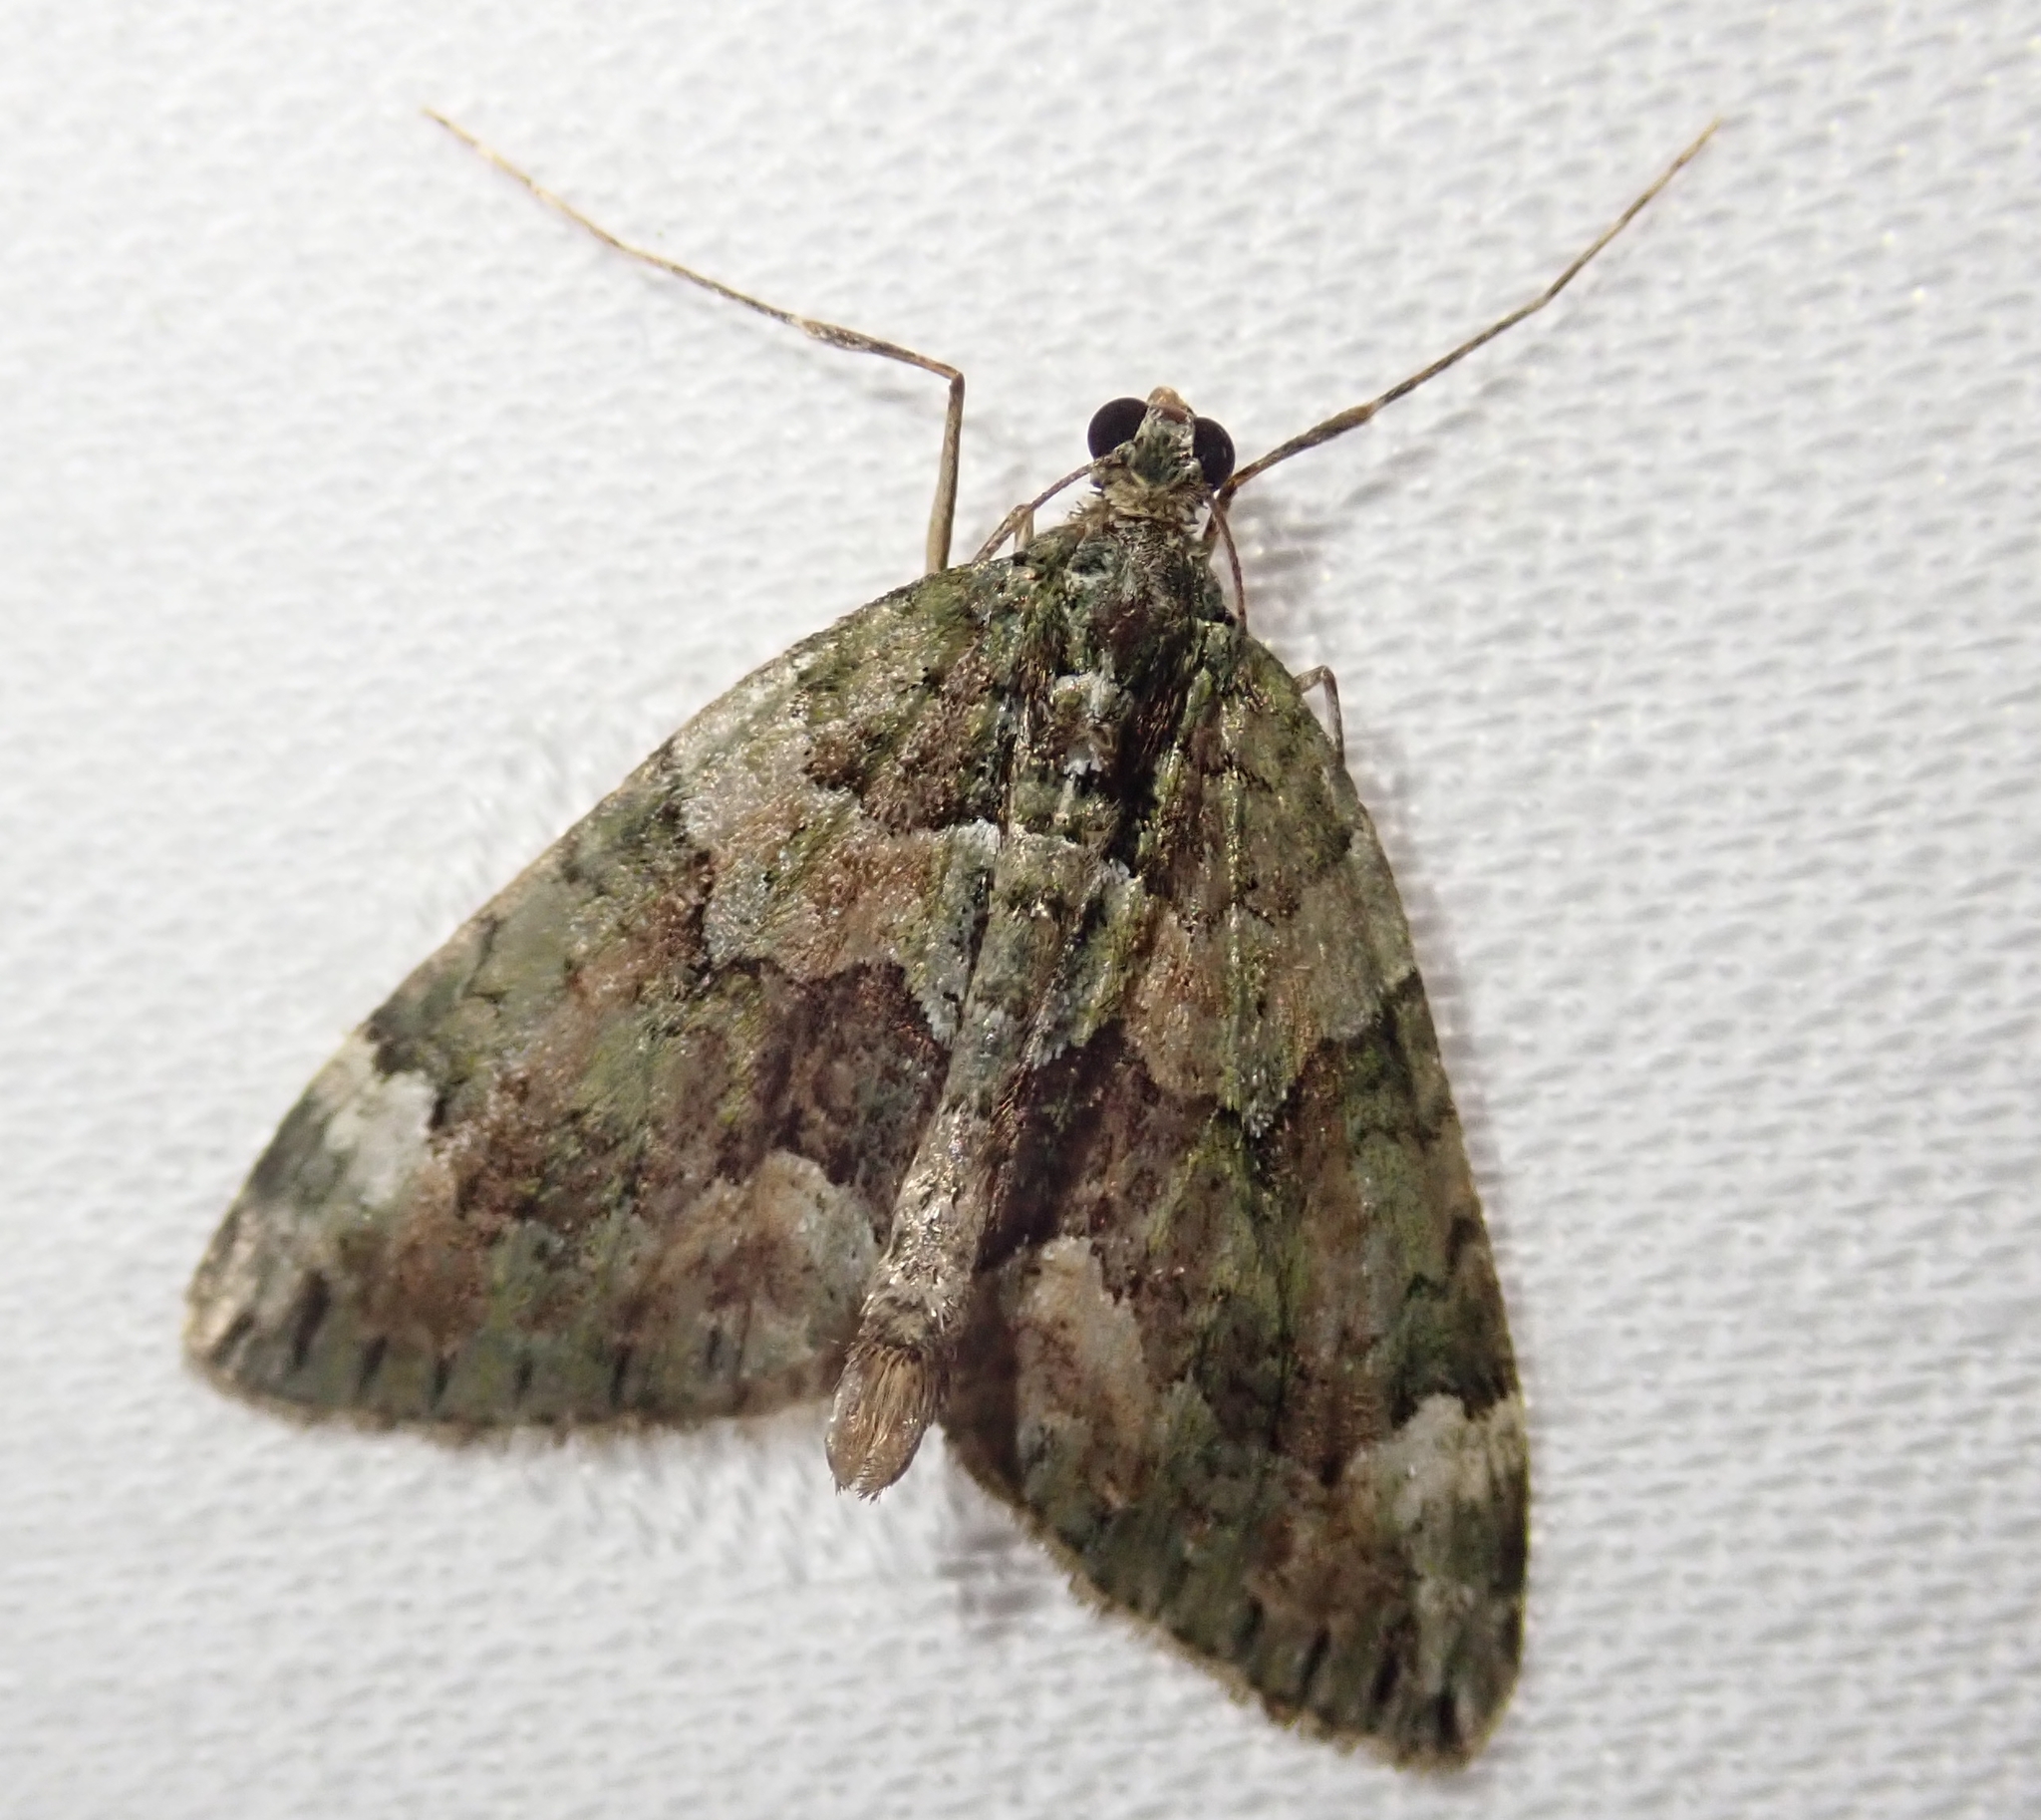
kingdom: Animalia
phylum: Arthropoda
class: Insecta
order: Lepidoptera
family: Geometridae
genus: Chloroclysta
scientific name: Chloroclysta siterata
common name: Red-green carpet
